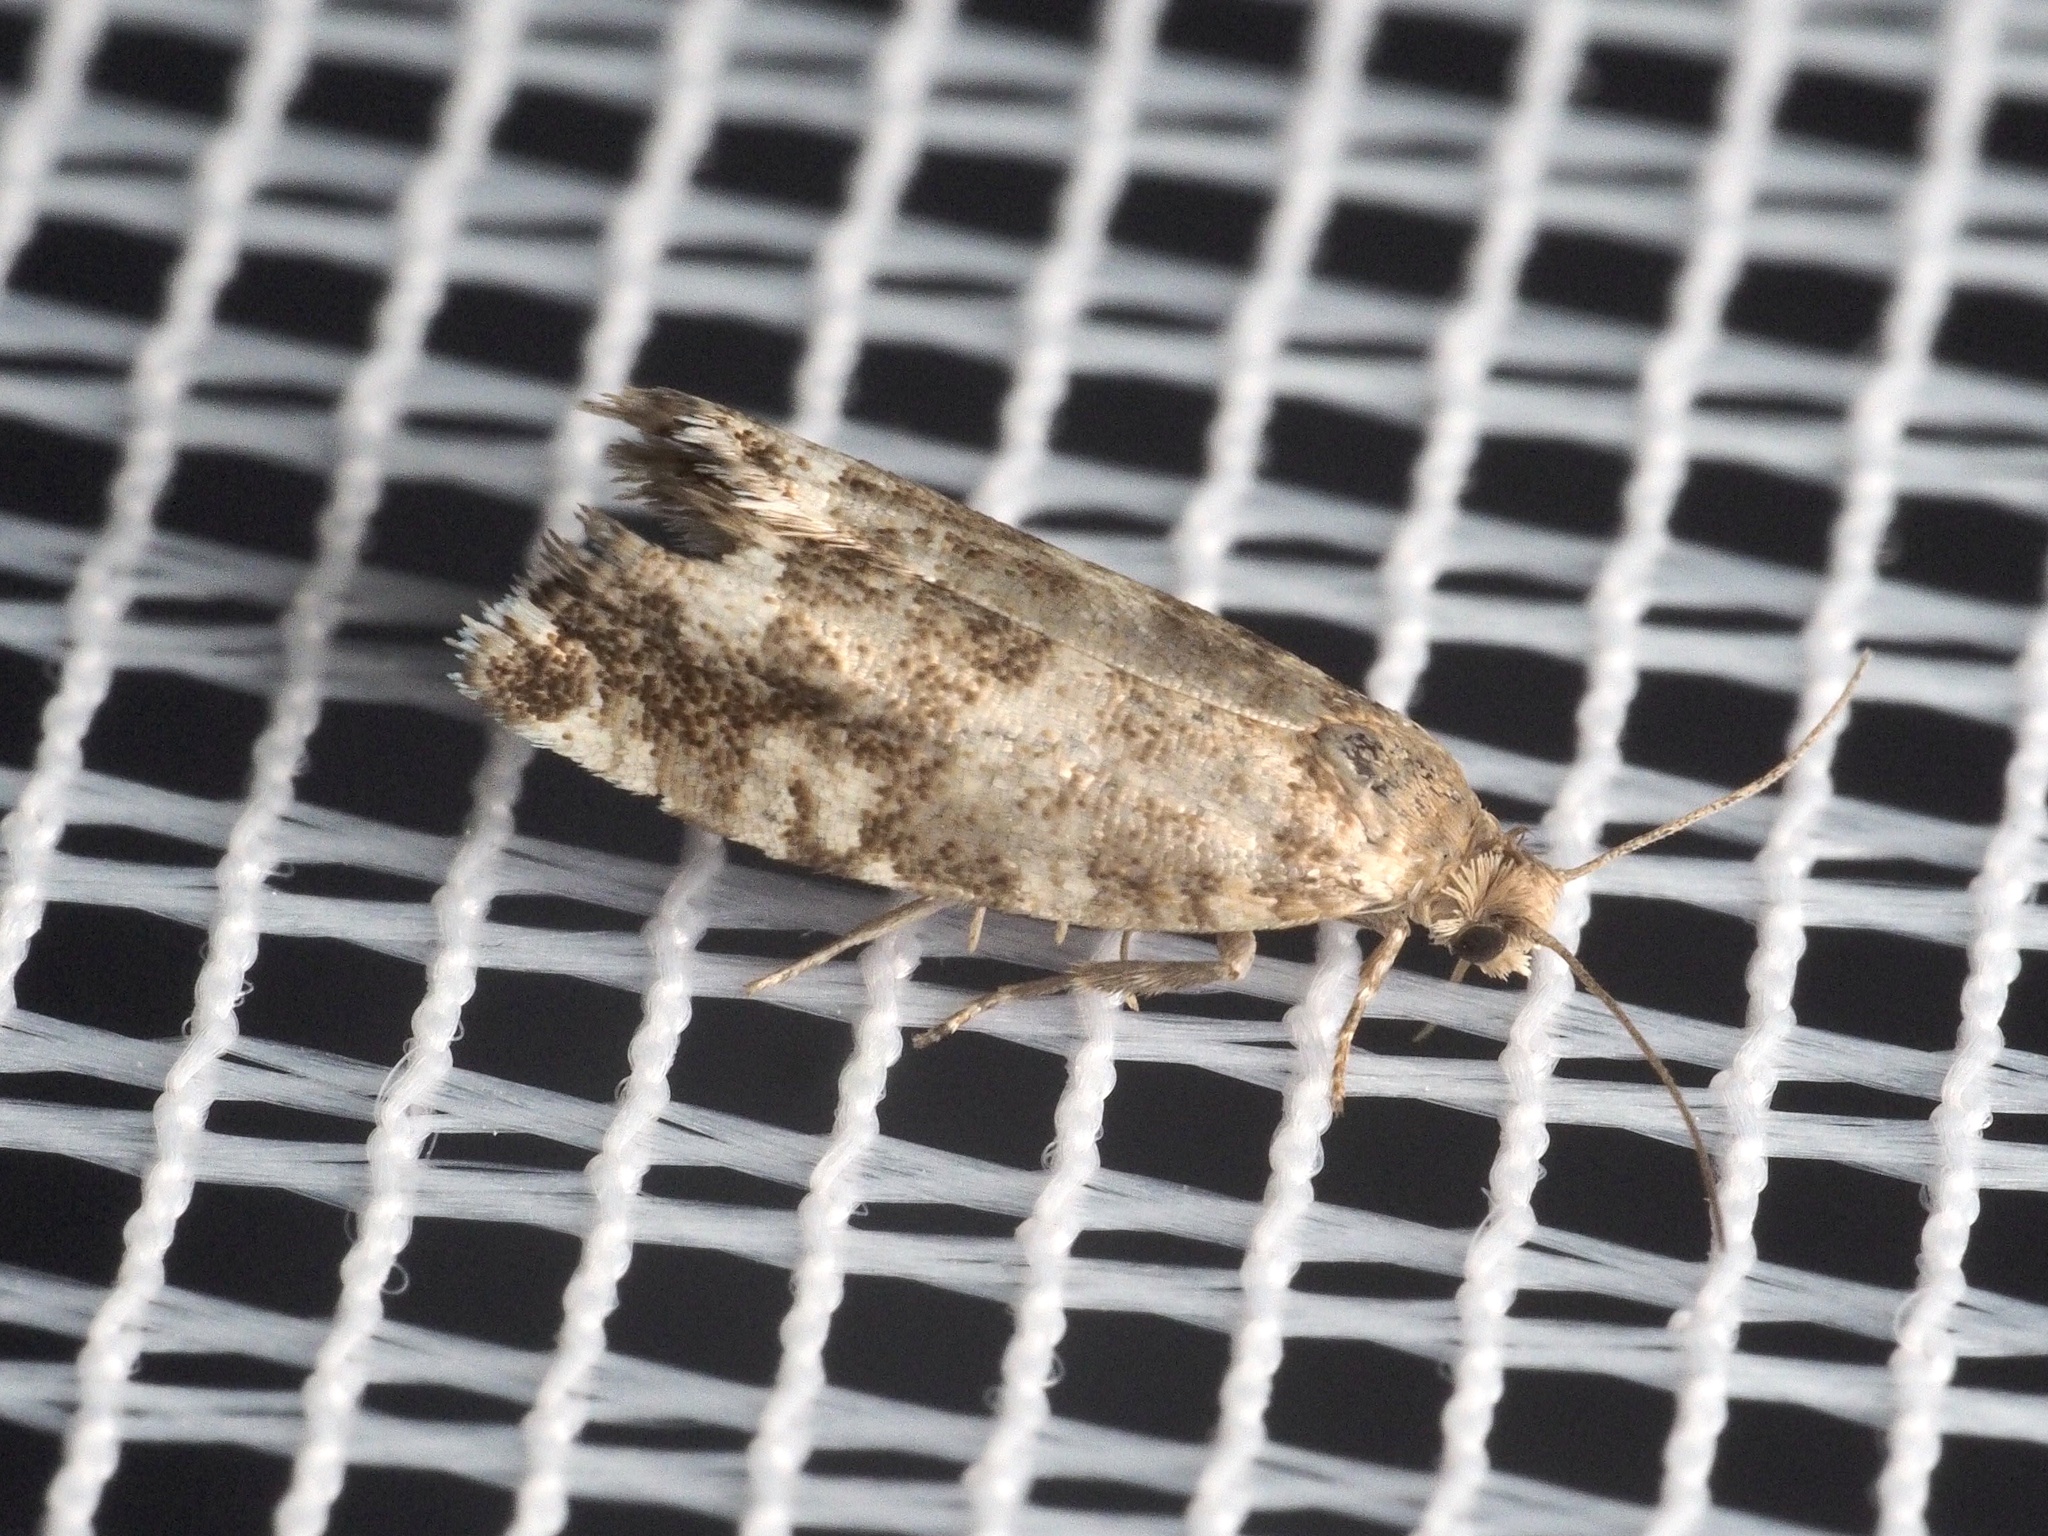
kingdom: Animalia
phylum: Arthropoda
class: Insecta
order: Lepidoptera
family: Tortricidae
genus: Epinotia
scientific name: Epinotia tedella
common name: Common spruce bell
